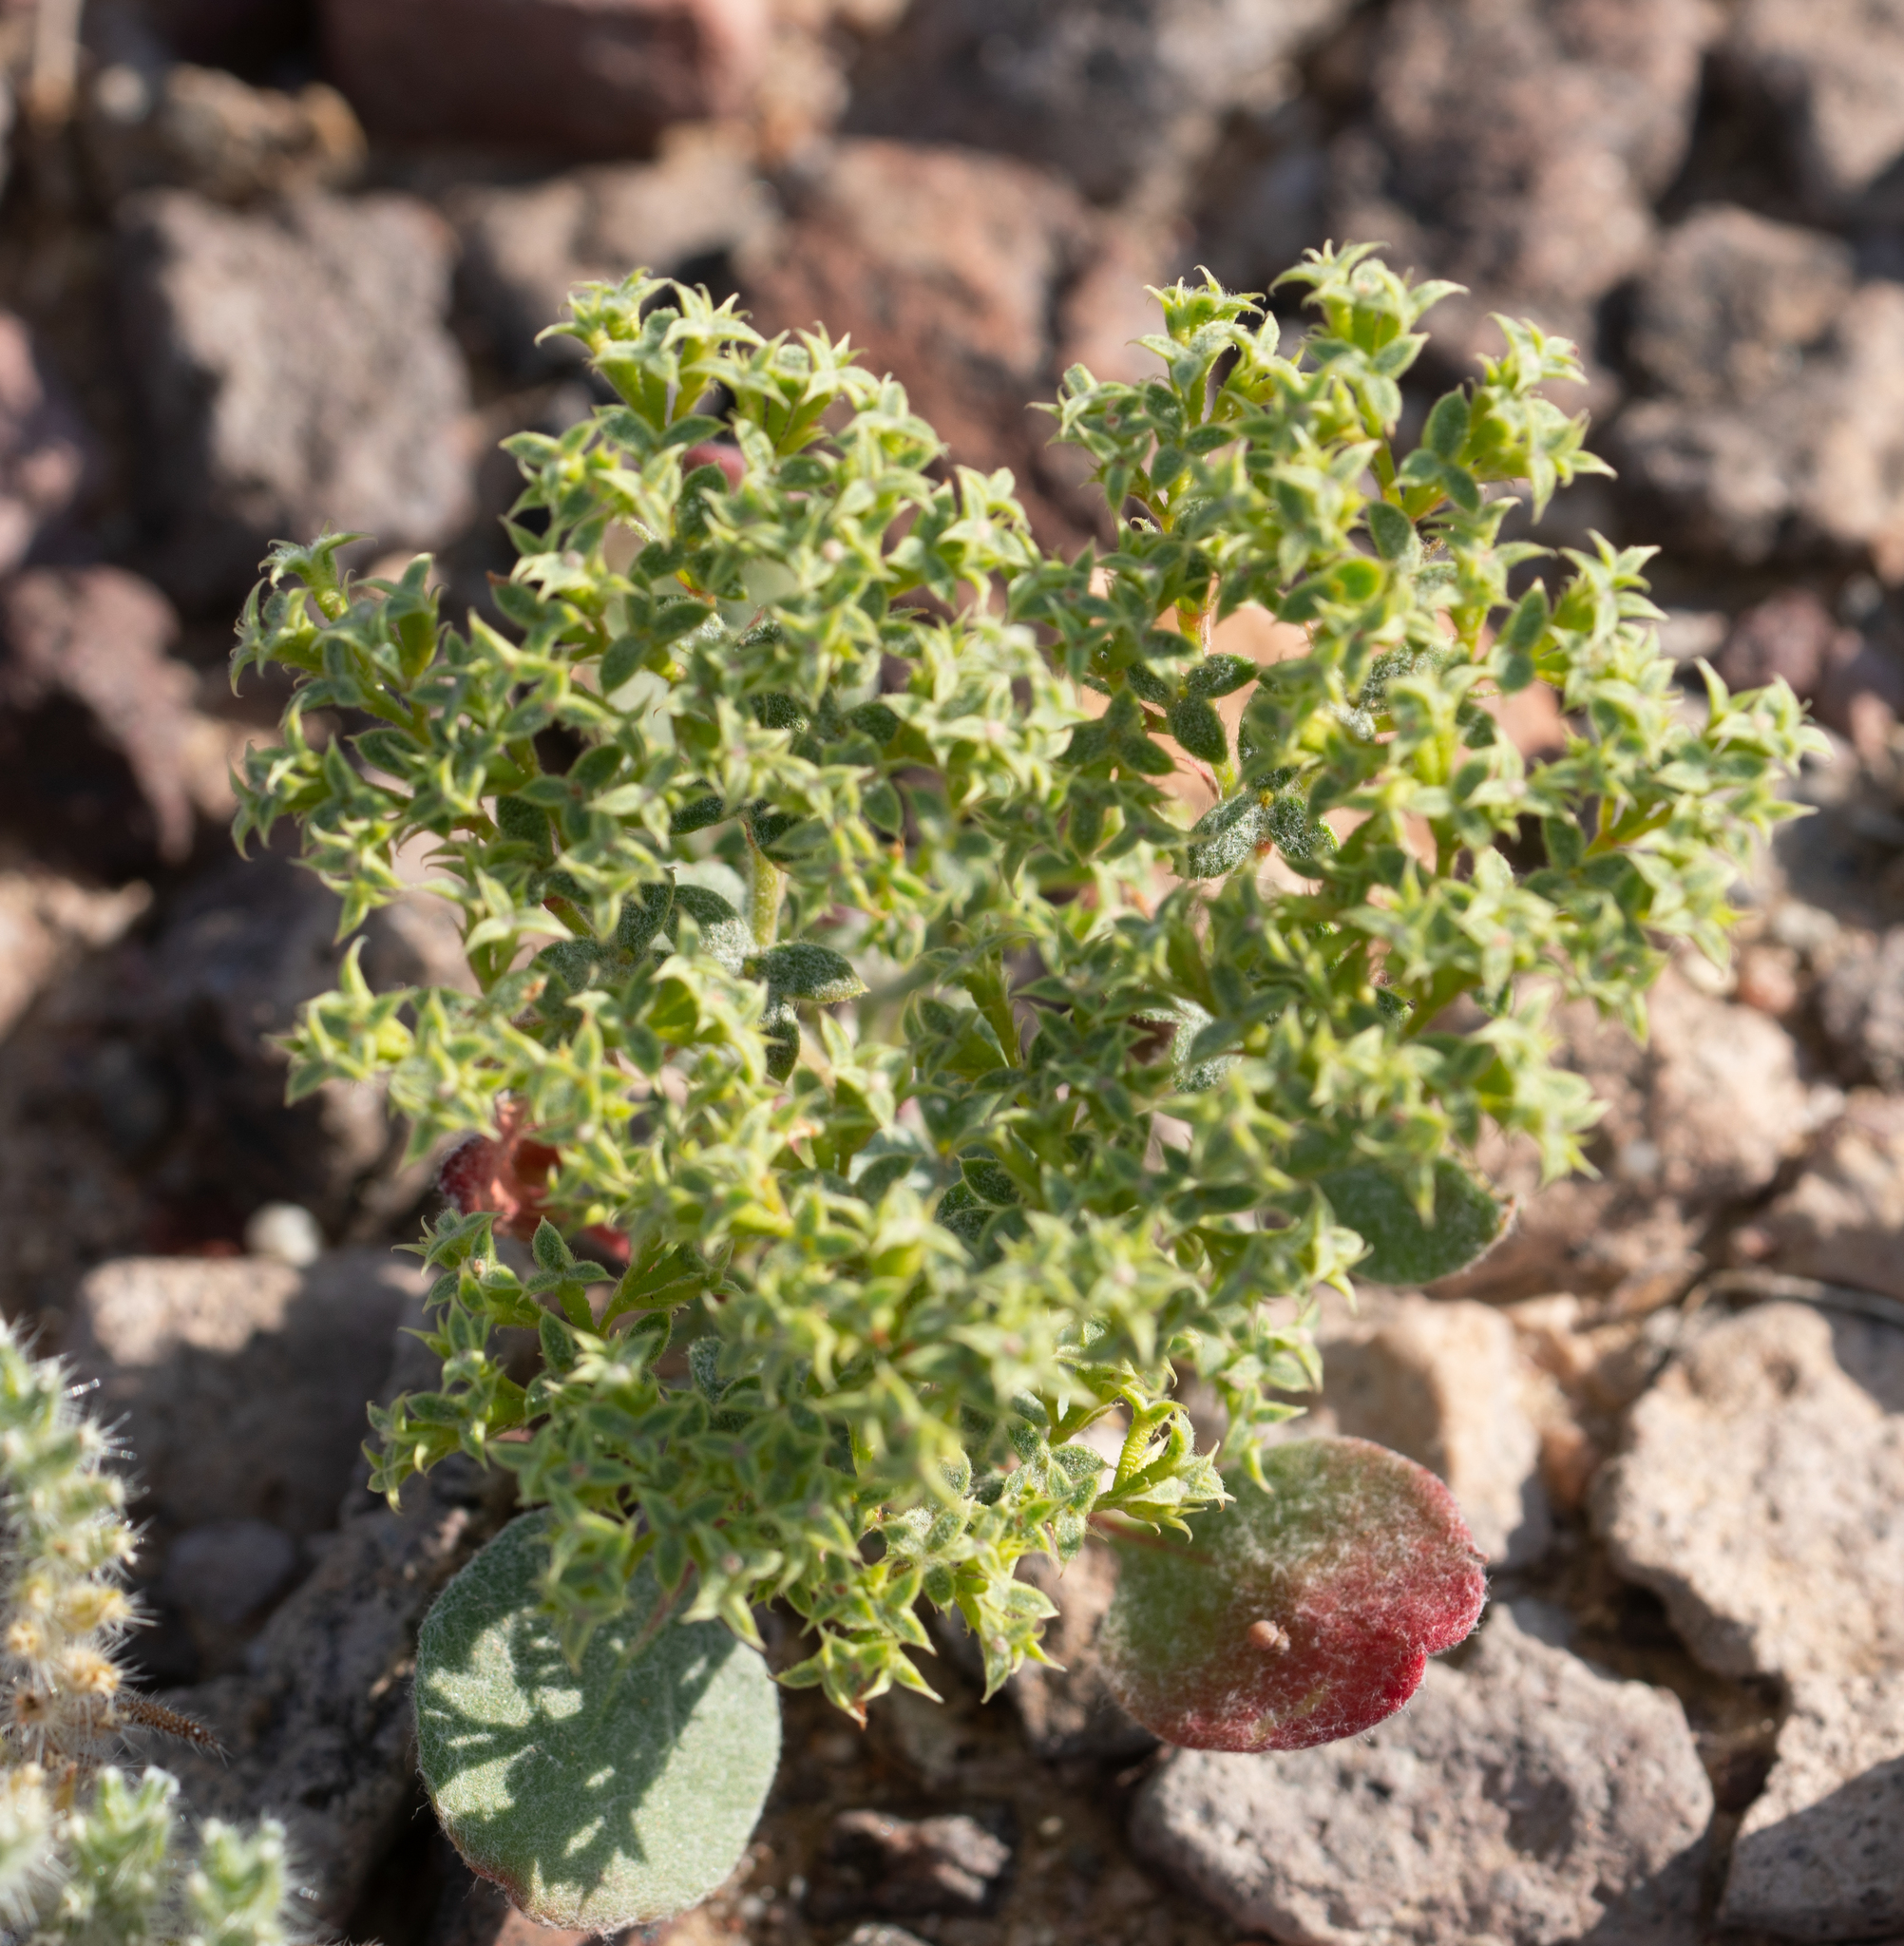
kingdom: Plantae
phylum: Tracheophyta
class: Magnoliopsida
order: Caryophyllales
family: Polygonaceae
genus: Chorizanthe
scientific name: Chorizanthe corrugata
